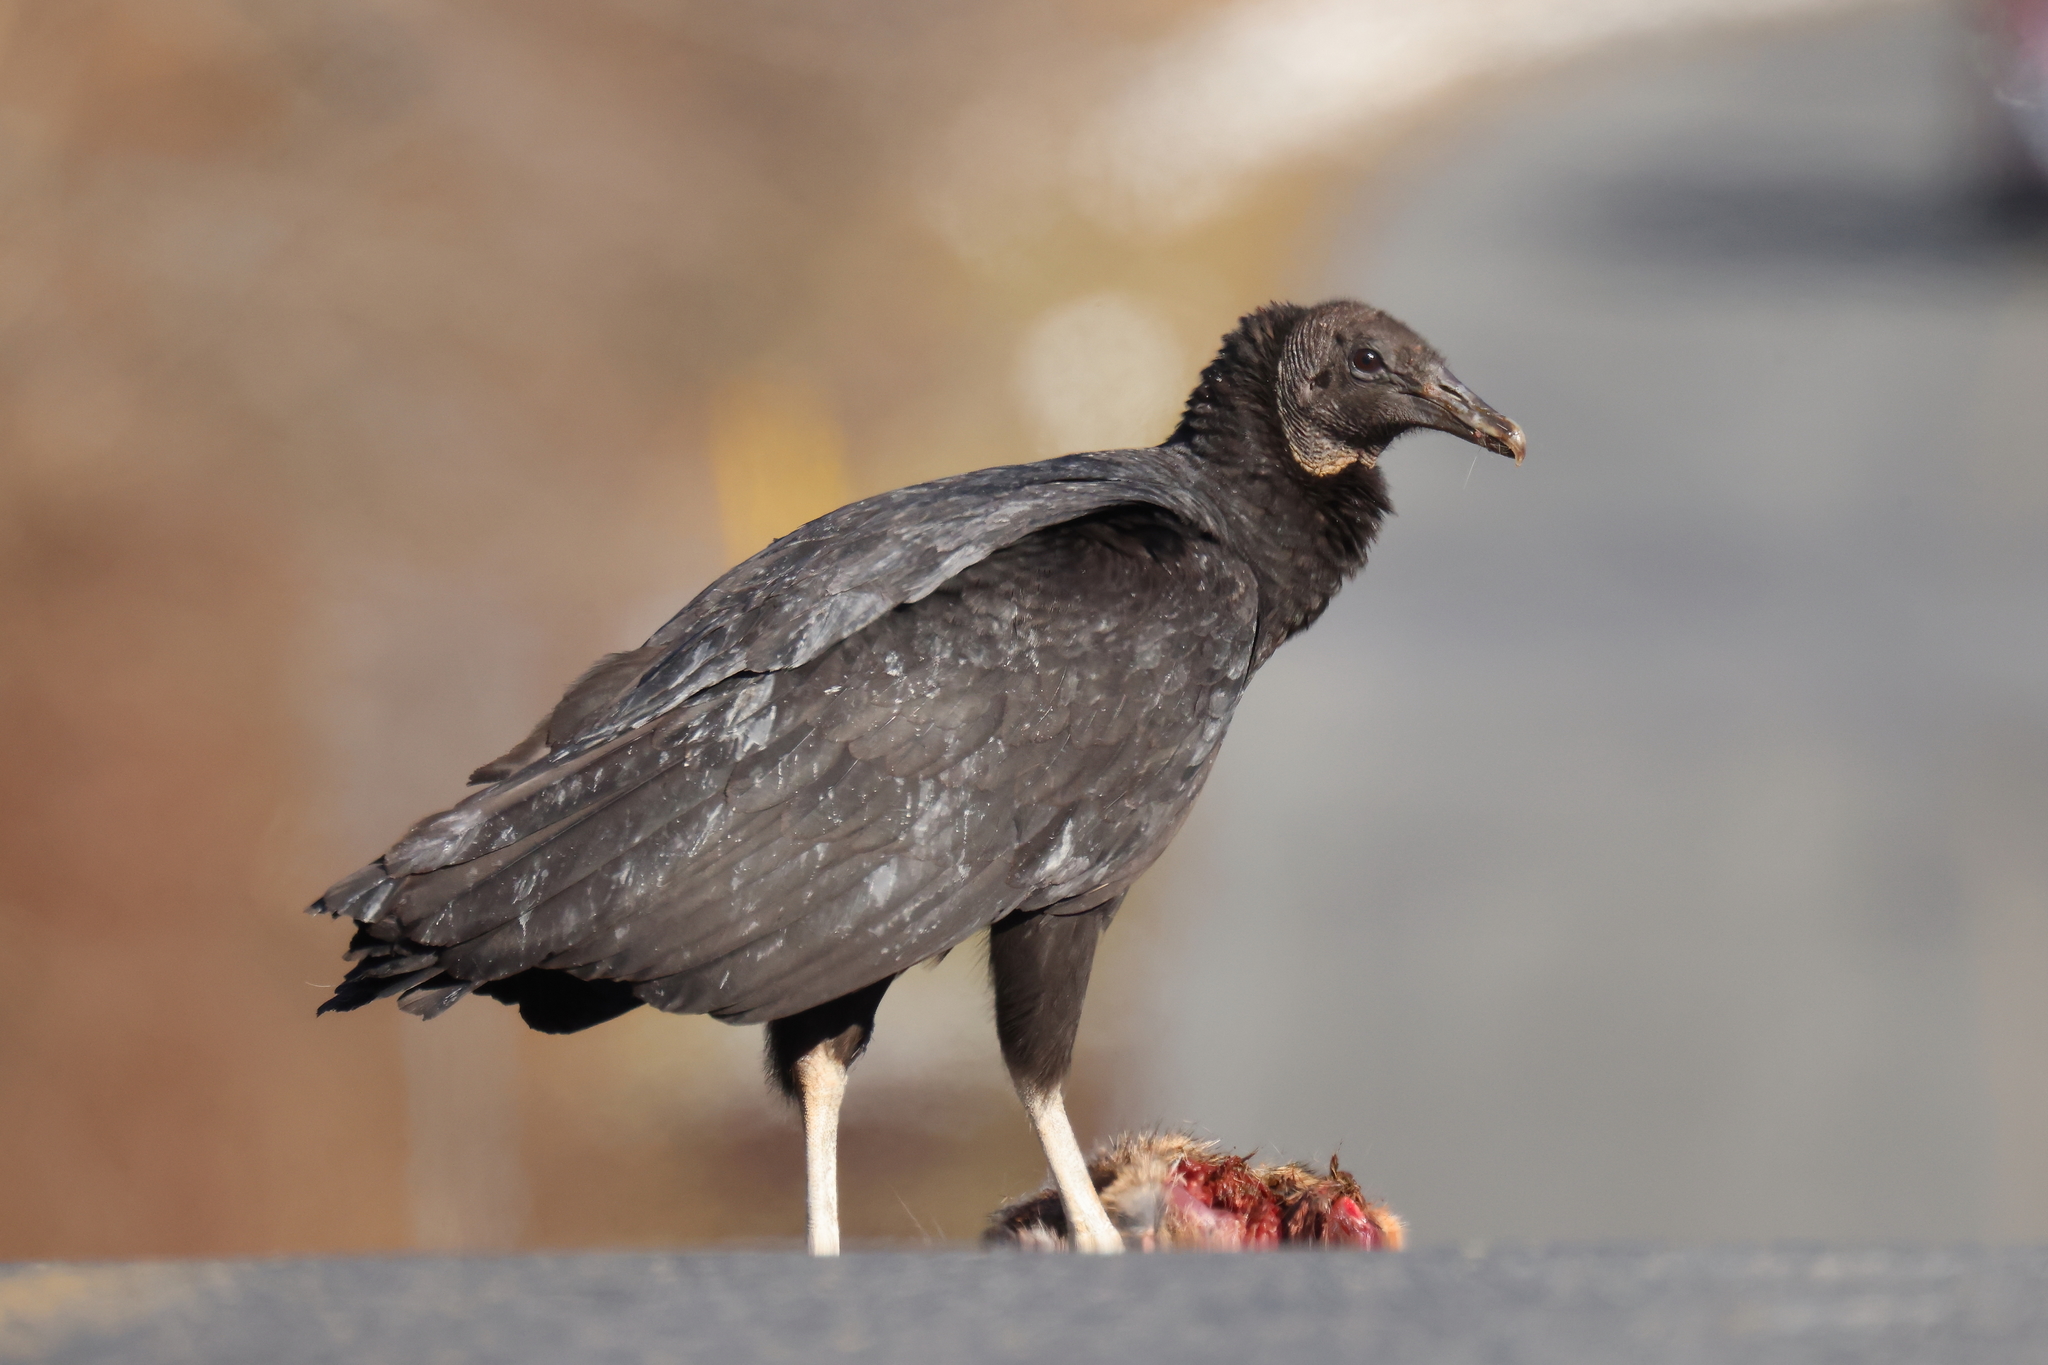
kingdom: Animalia
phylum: Chordata
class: Aves
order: Accipitriformes
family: Cathartidae
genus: Coragyps
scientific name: Coragyps atratus
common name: Black vulture
